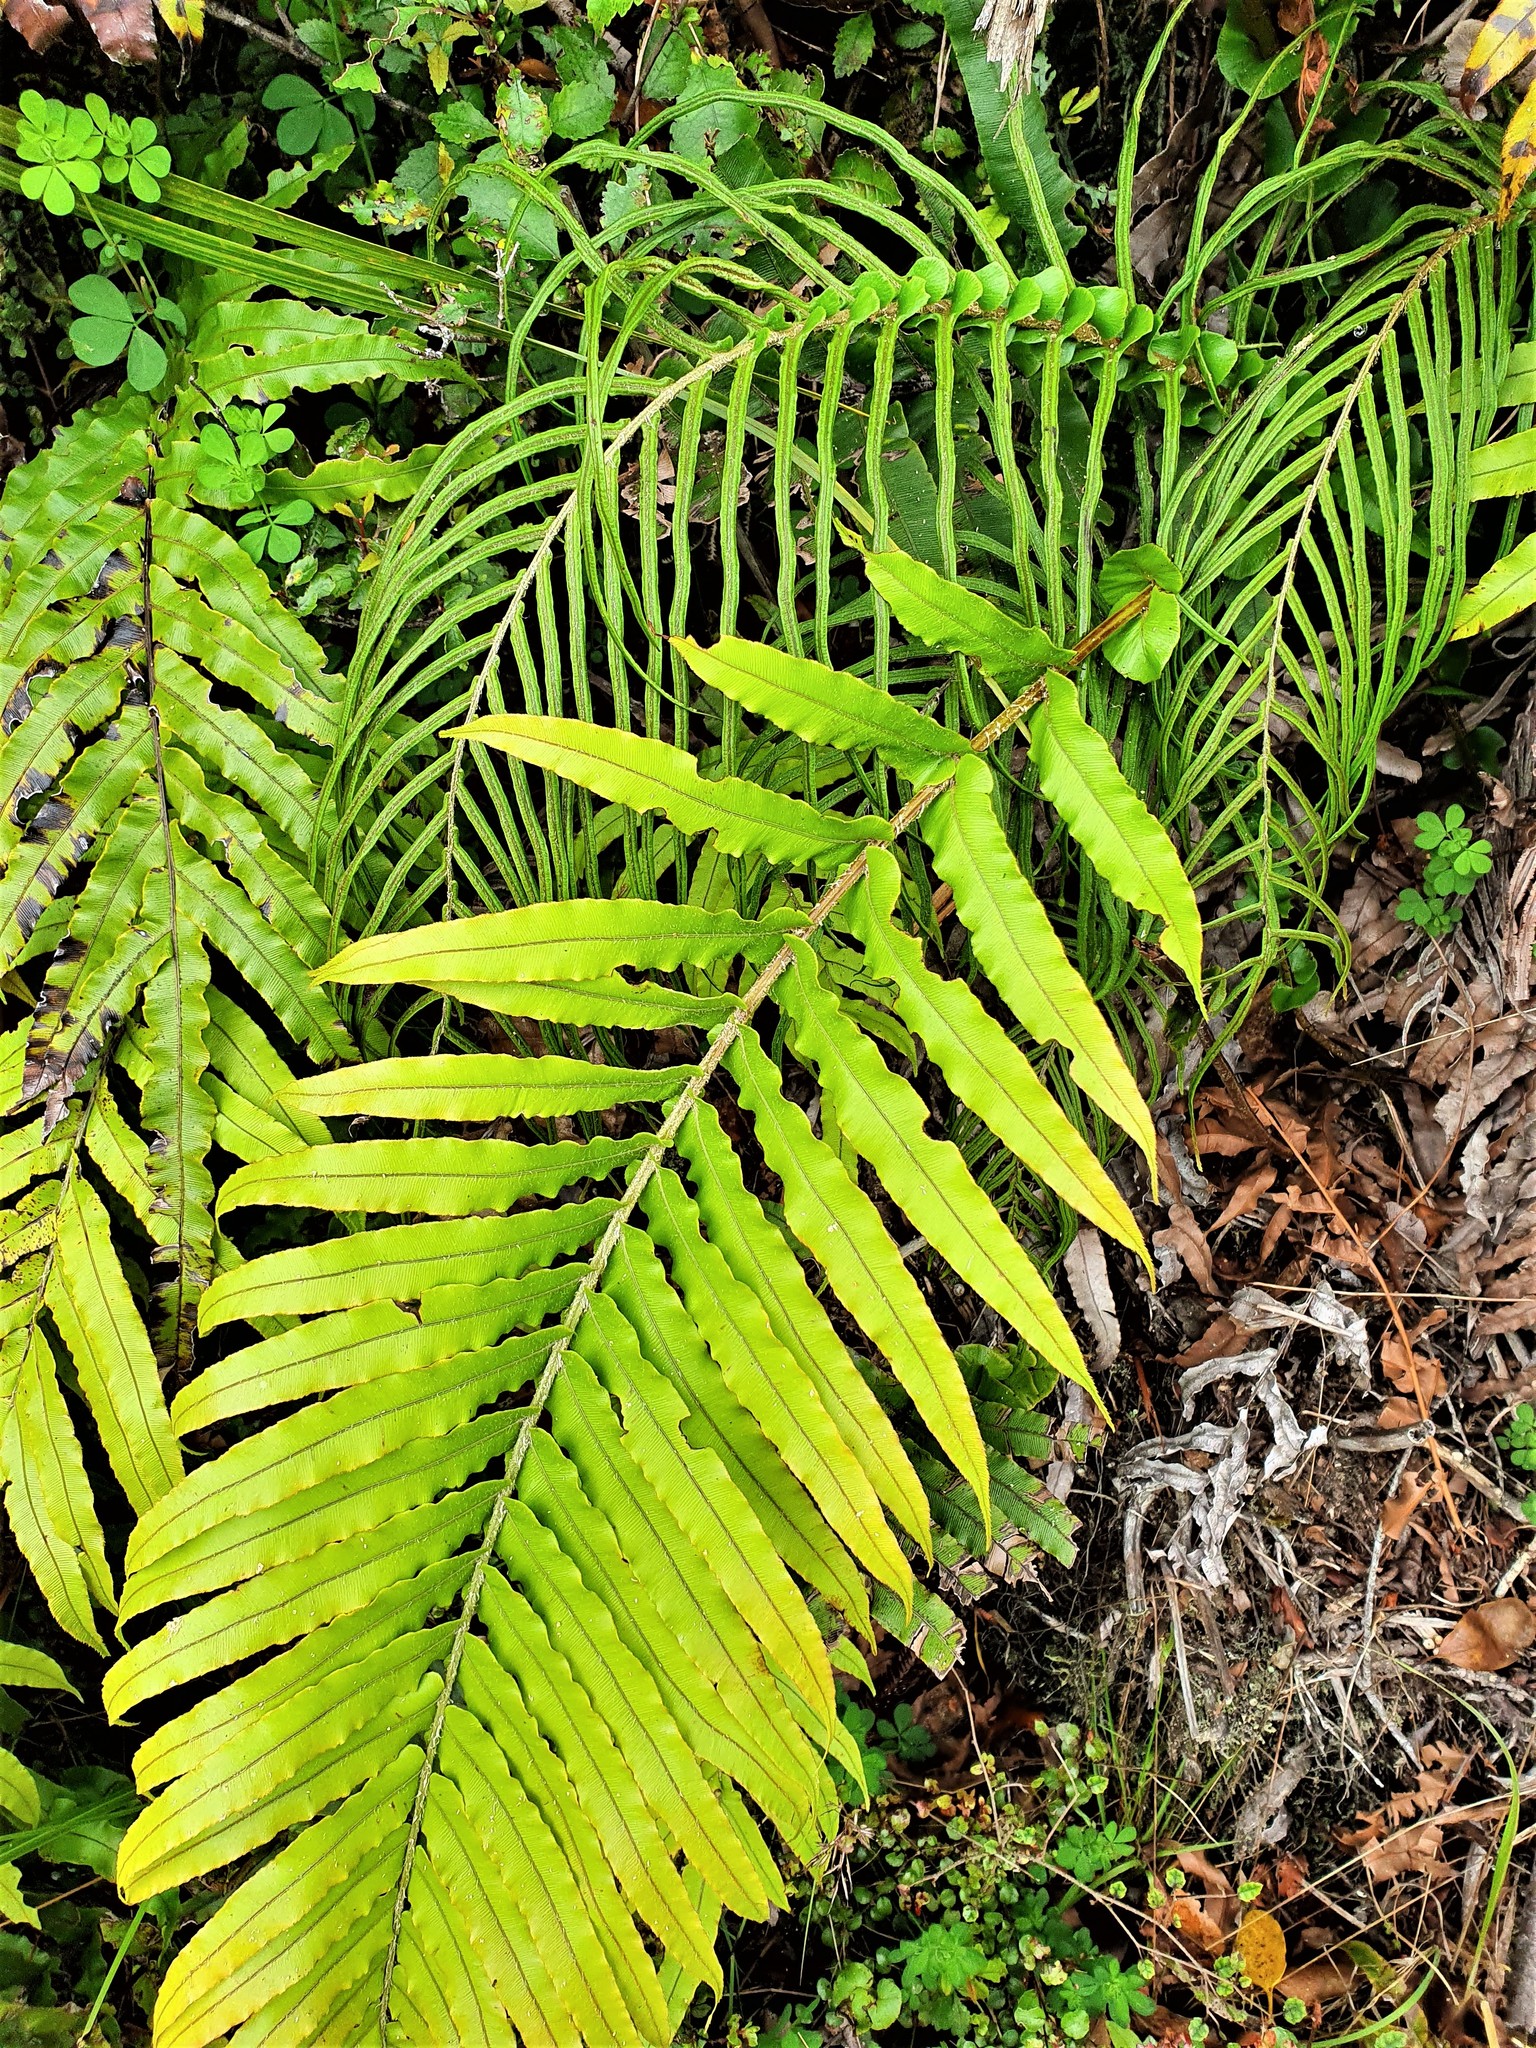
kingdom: Plantae
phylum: Tracheophyta
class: Polypodiopsida
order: Polypodiales
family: Blechnaceae
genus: Parablechnum
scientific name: Parablechnum novae-zelandiae
